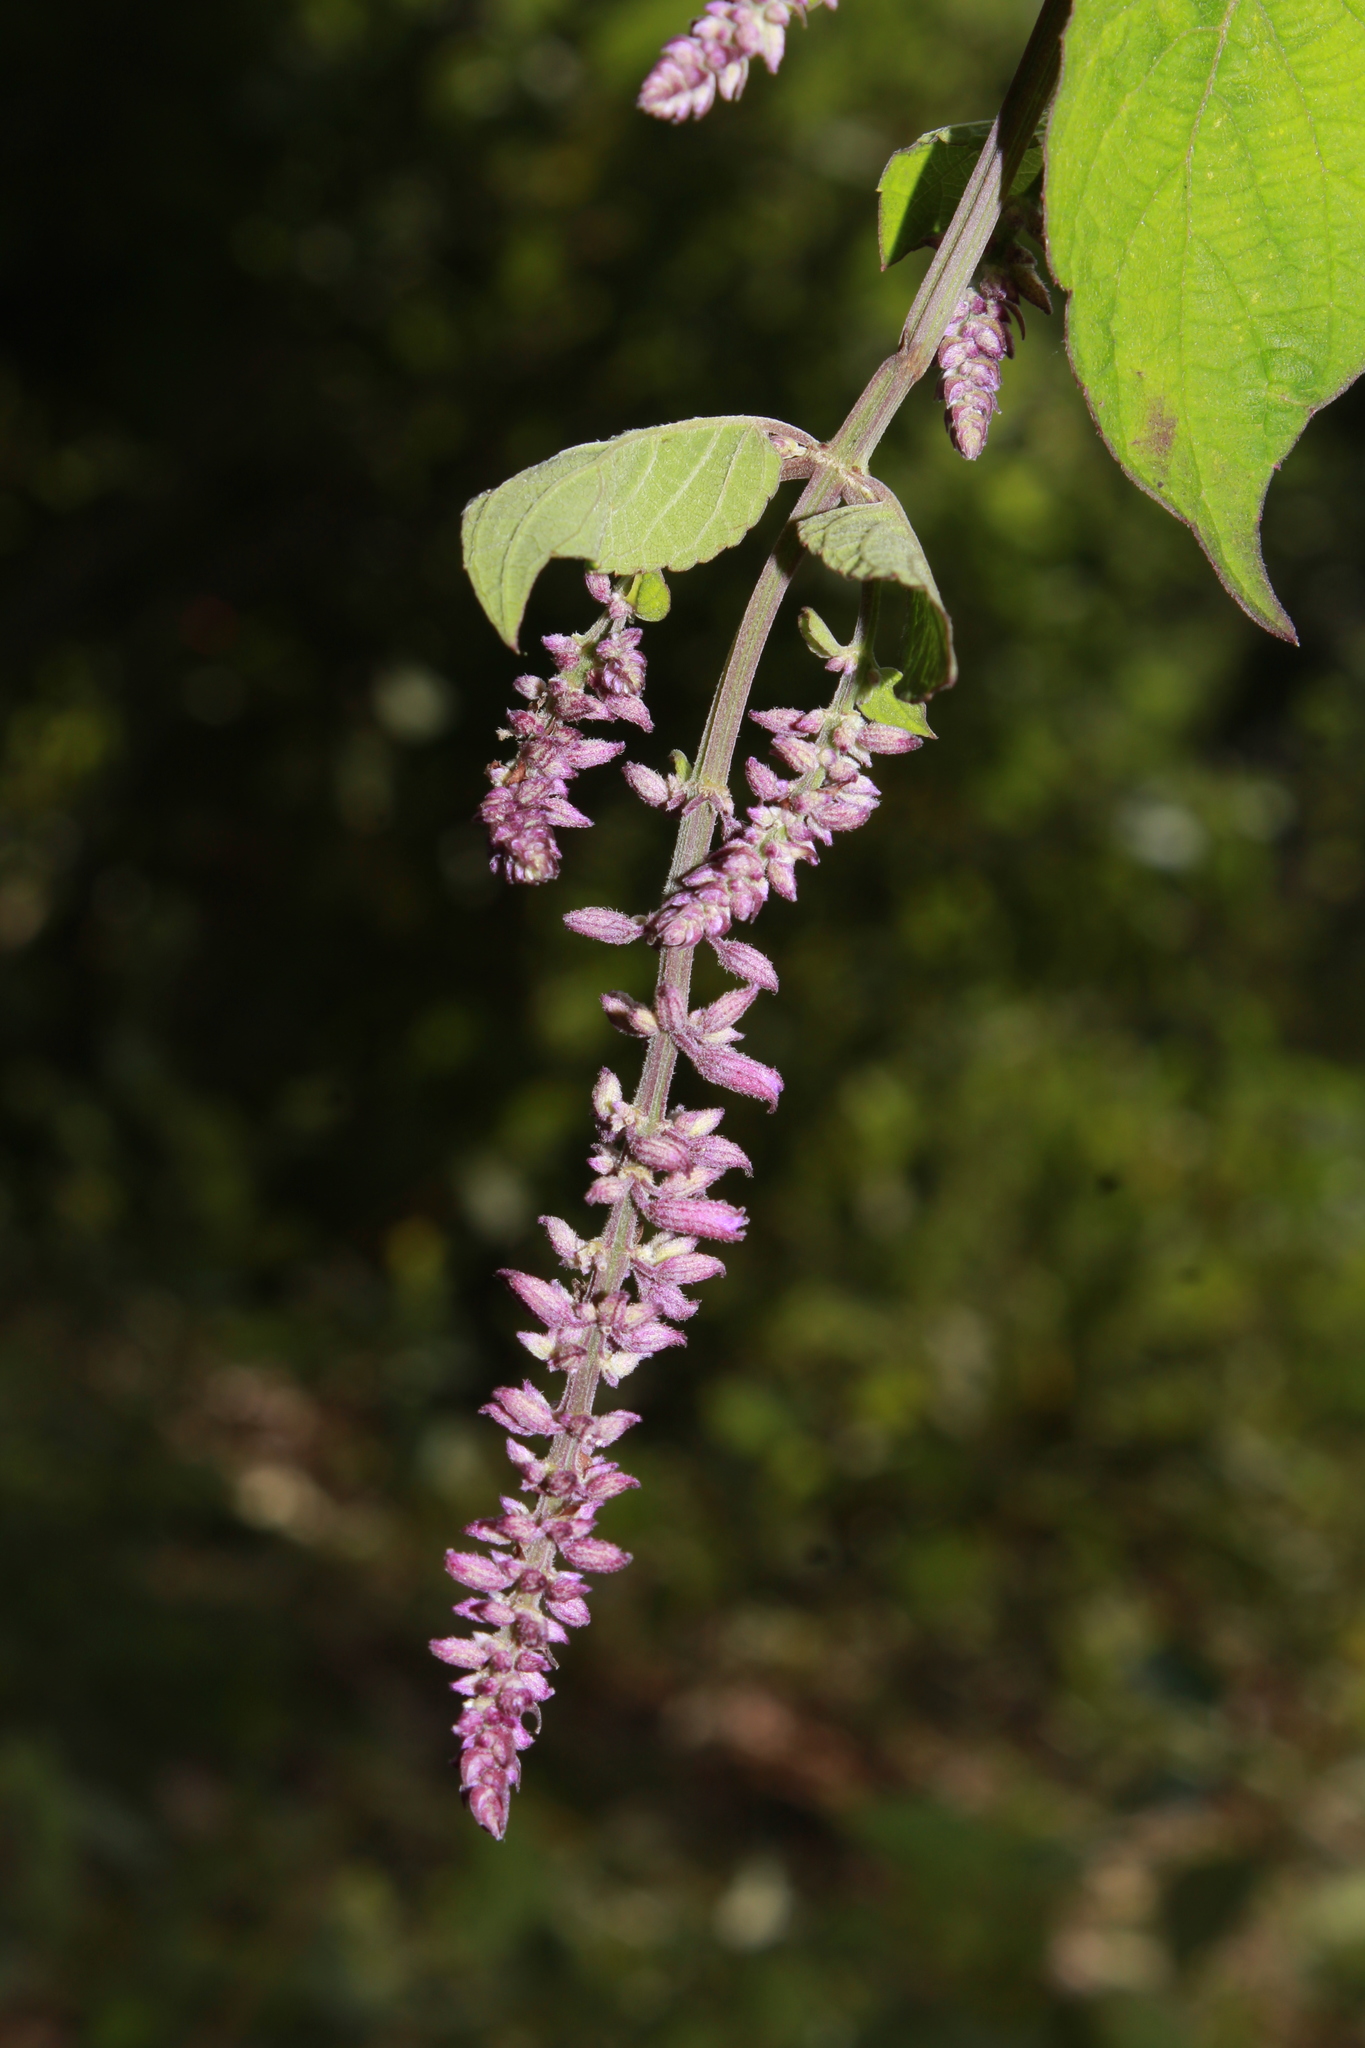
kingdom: Plantae
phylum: Tracheophyta
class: Magnoliopsida
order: Lamiales
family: Lamiaceae
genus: Salvia
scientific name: Salvia purpurea
